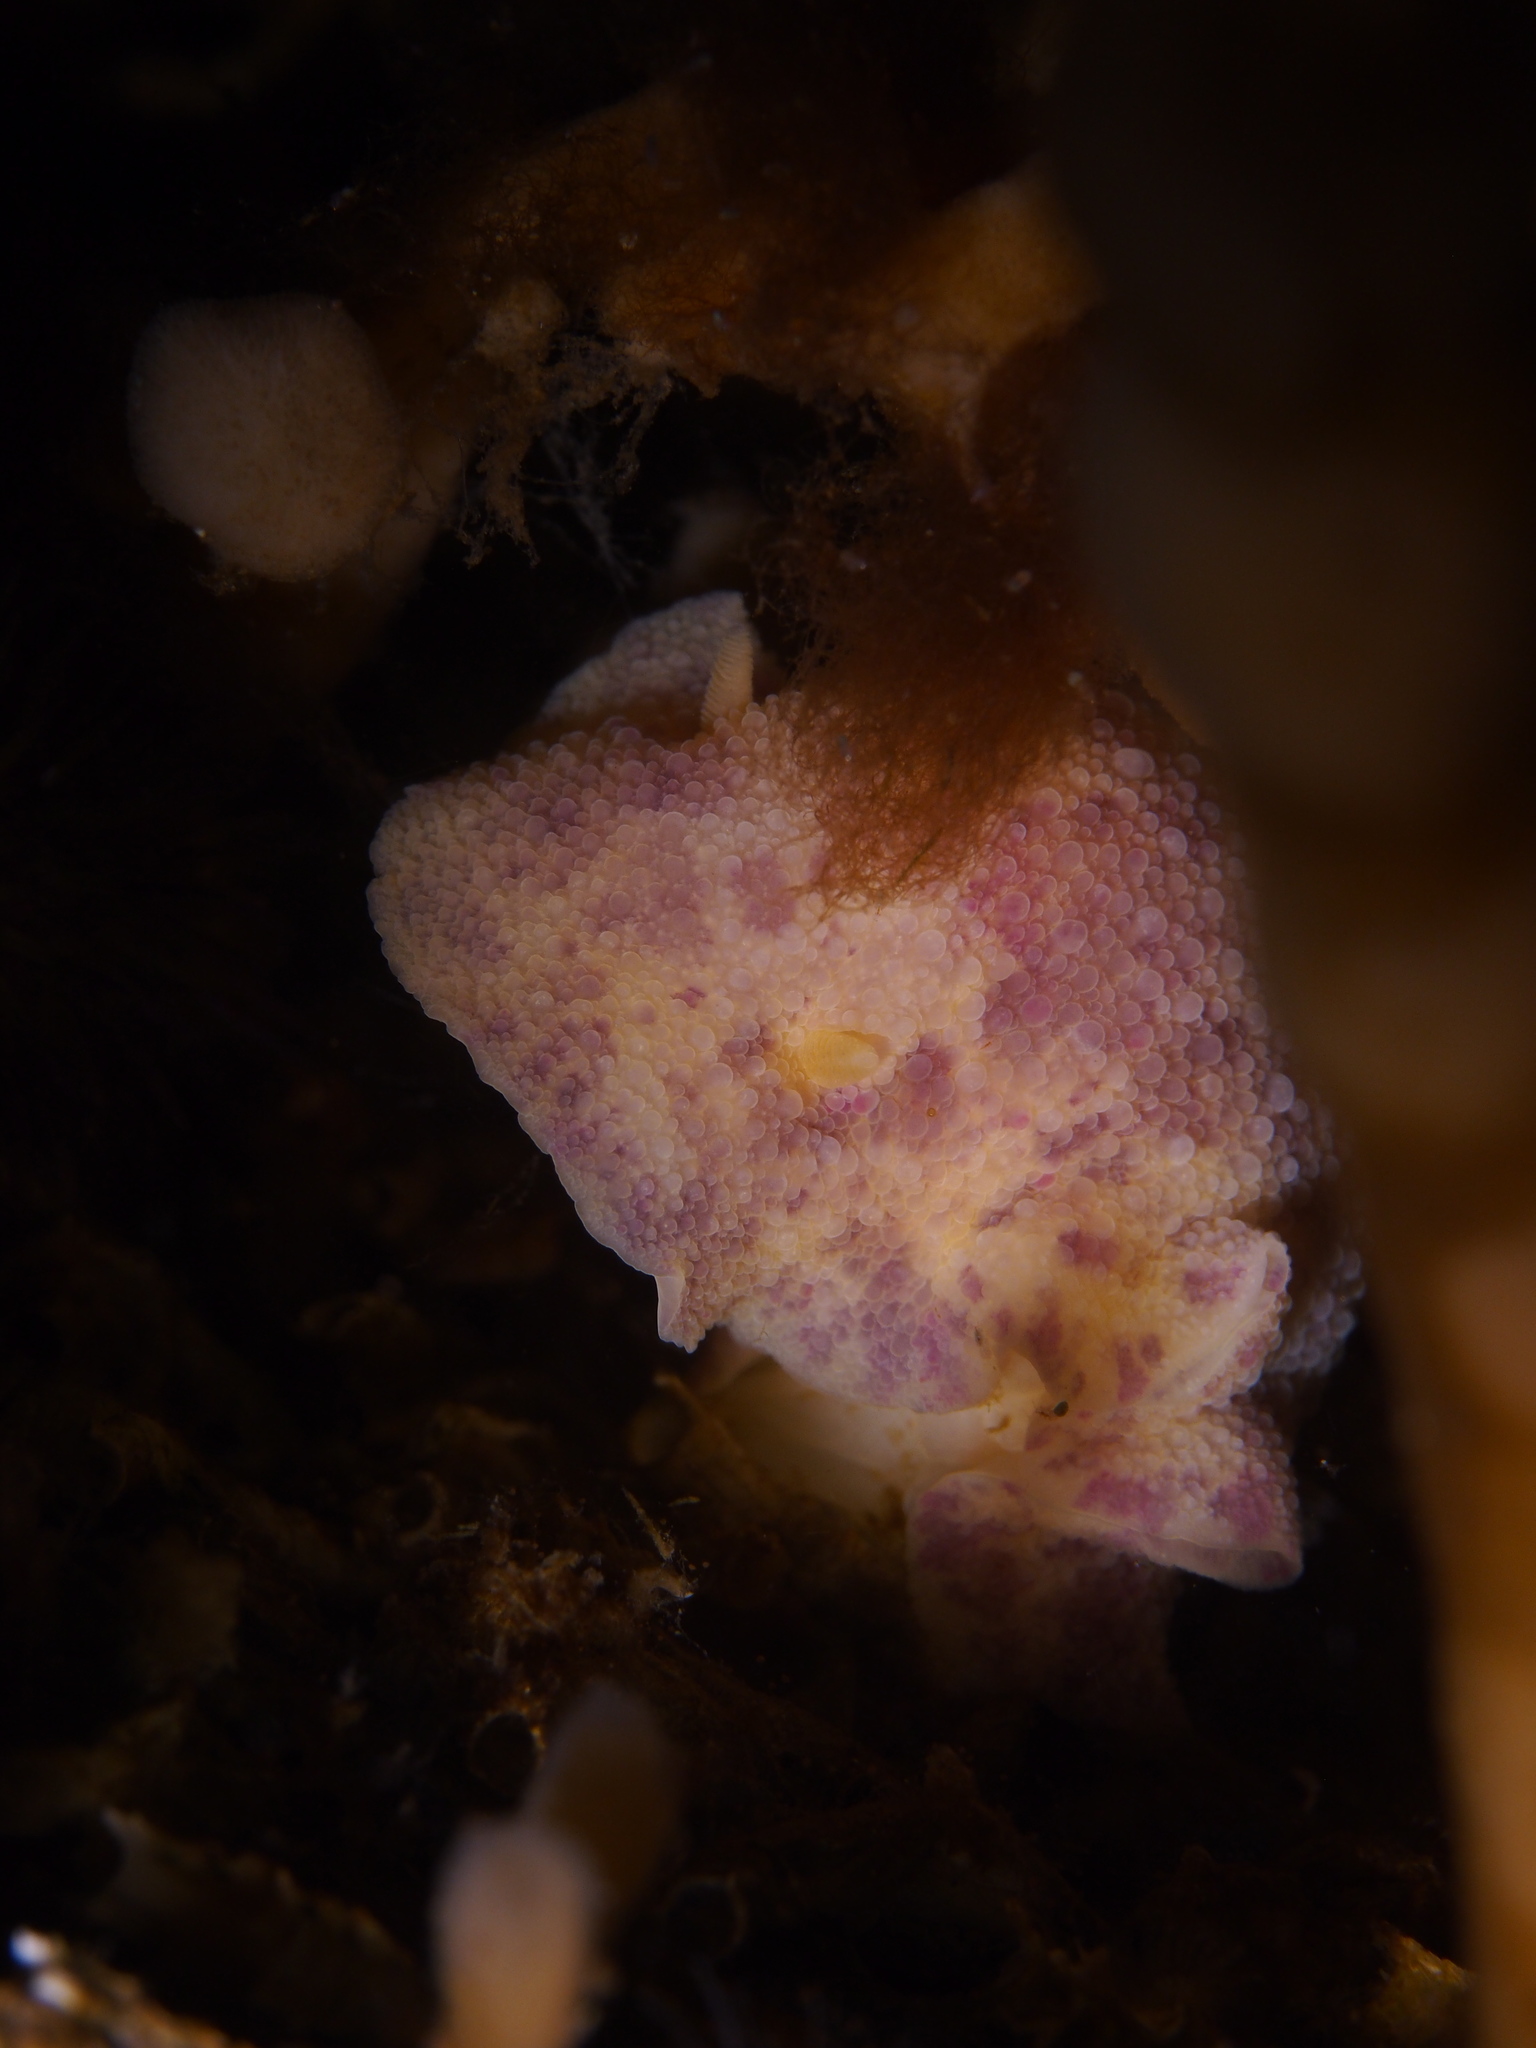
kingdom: Animalia
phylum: Mollusca
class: Gastropoda
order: Nudibranchia
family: Dorididae
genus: Doris
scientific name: Doris pseudoargus
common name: Sea lemon
